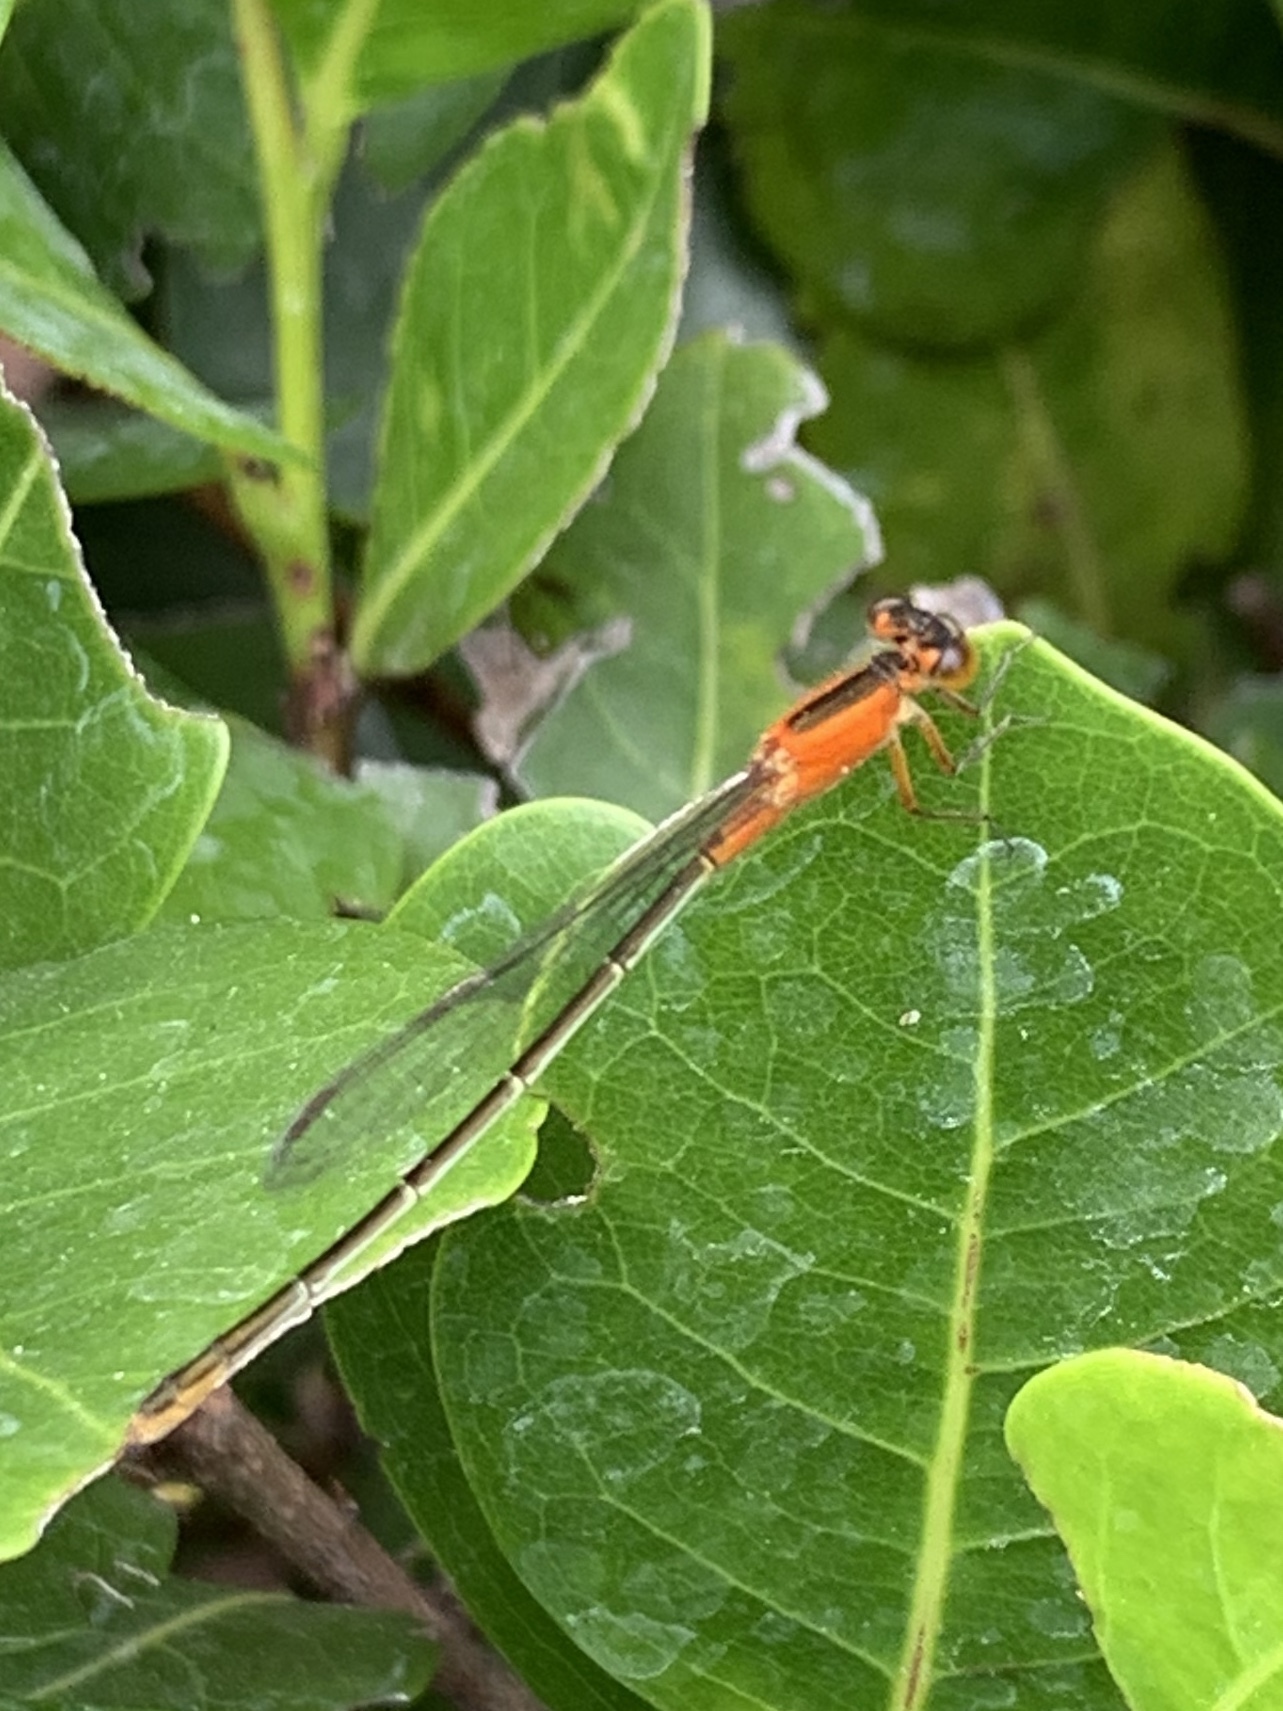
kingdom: Animalia
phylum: Arthropoda
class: Insecta
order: Odonata
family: Coenagrionidae
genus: Ischnura
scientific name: Ischnura ramburii
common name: Rambur's forktail
